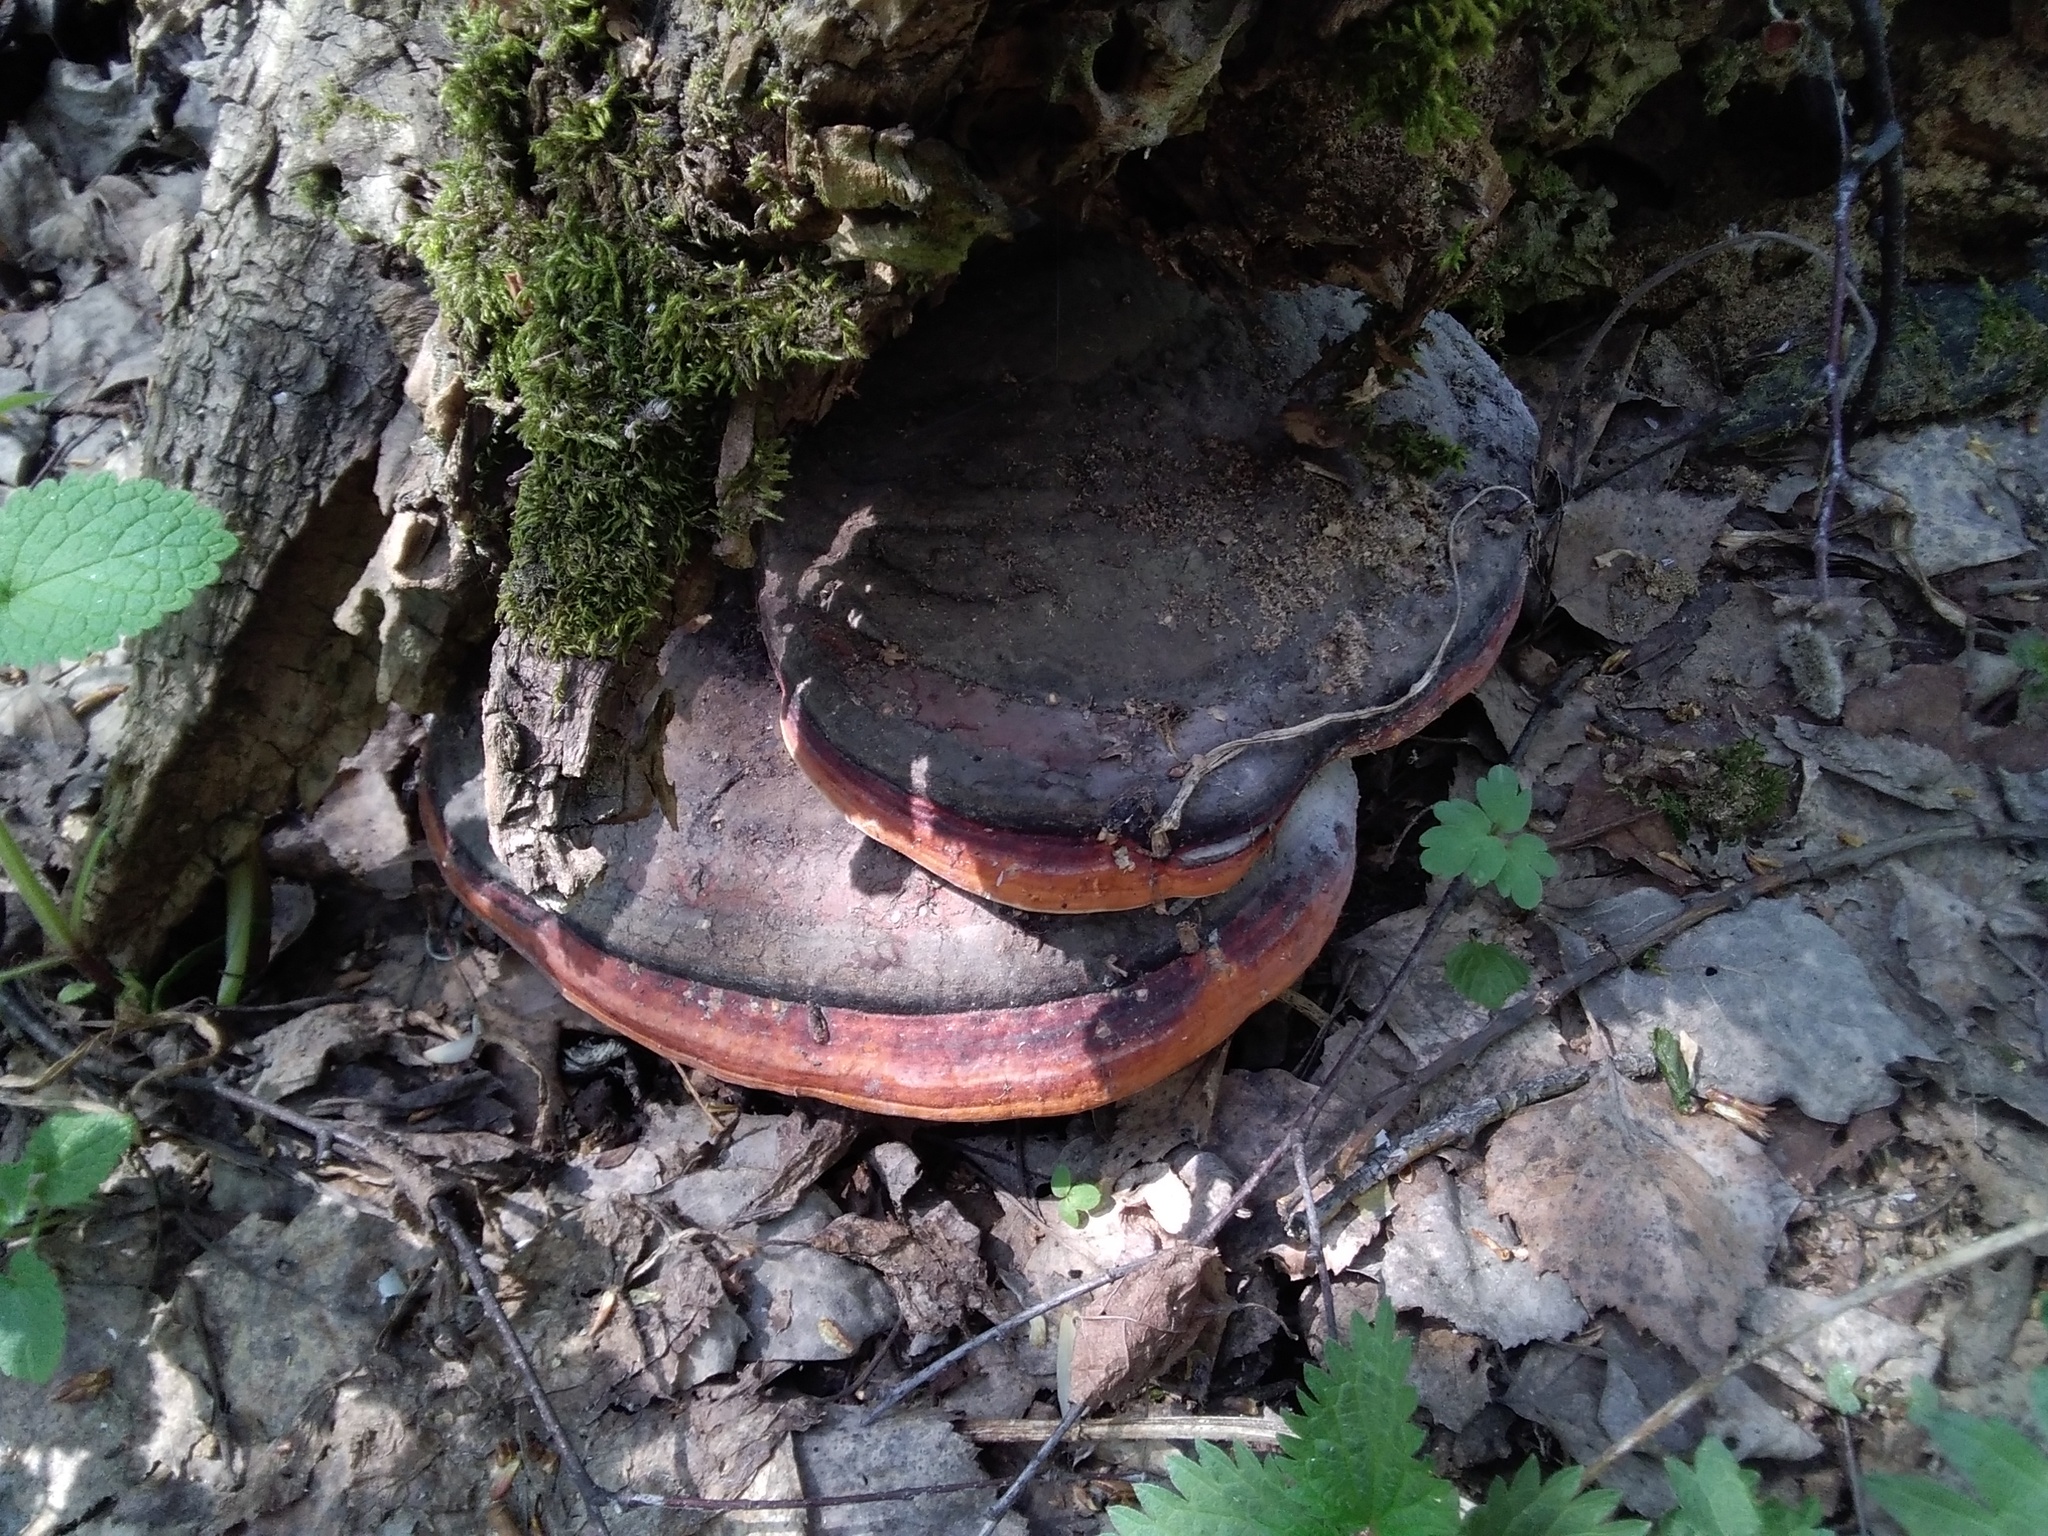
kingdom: Fungi
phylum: Basidiomycota
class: Agaricomycetes
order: Polyporales
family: Fomitopsidaceae
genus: Fomitopsis
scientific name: Fomitopsis pinicola
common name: Red-belted bracket
